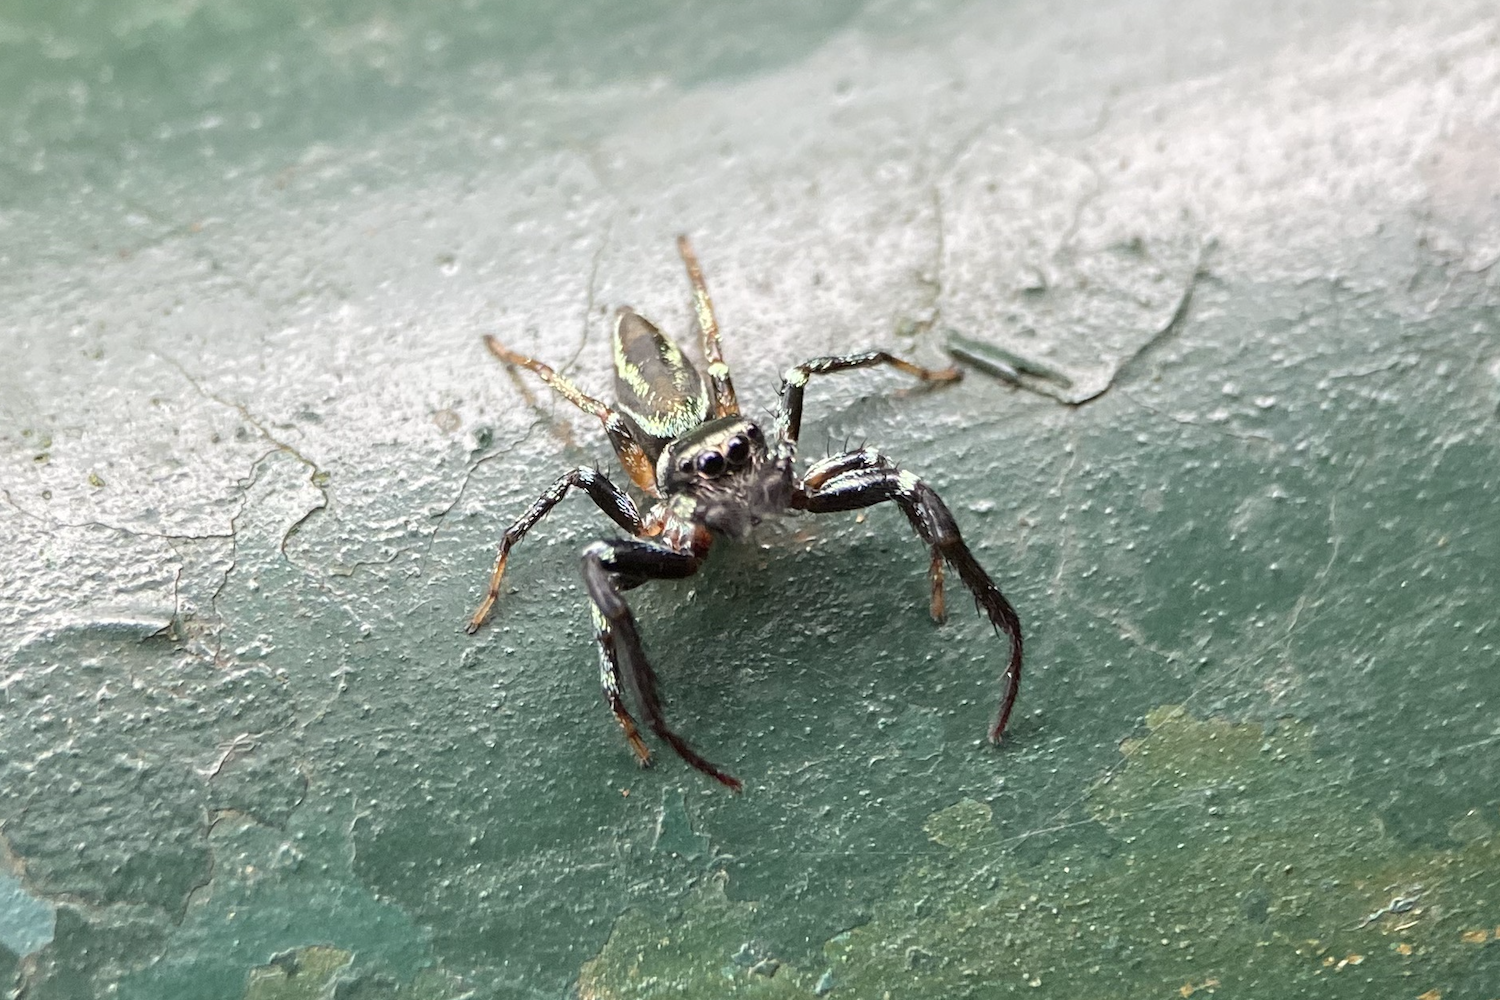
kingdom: Animalia
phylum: Arthropoda
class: Arachnida
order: Araneae
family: Salticidae
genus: Thiania
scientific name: Thiania suboppressa
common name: Jumping spider
